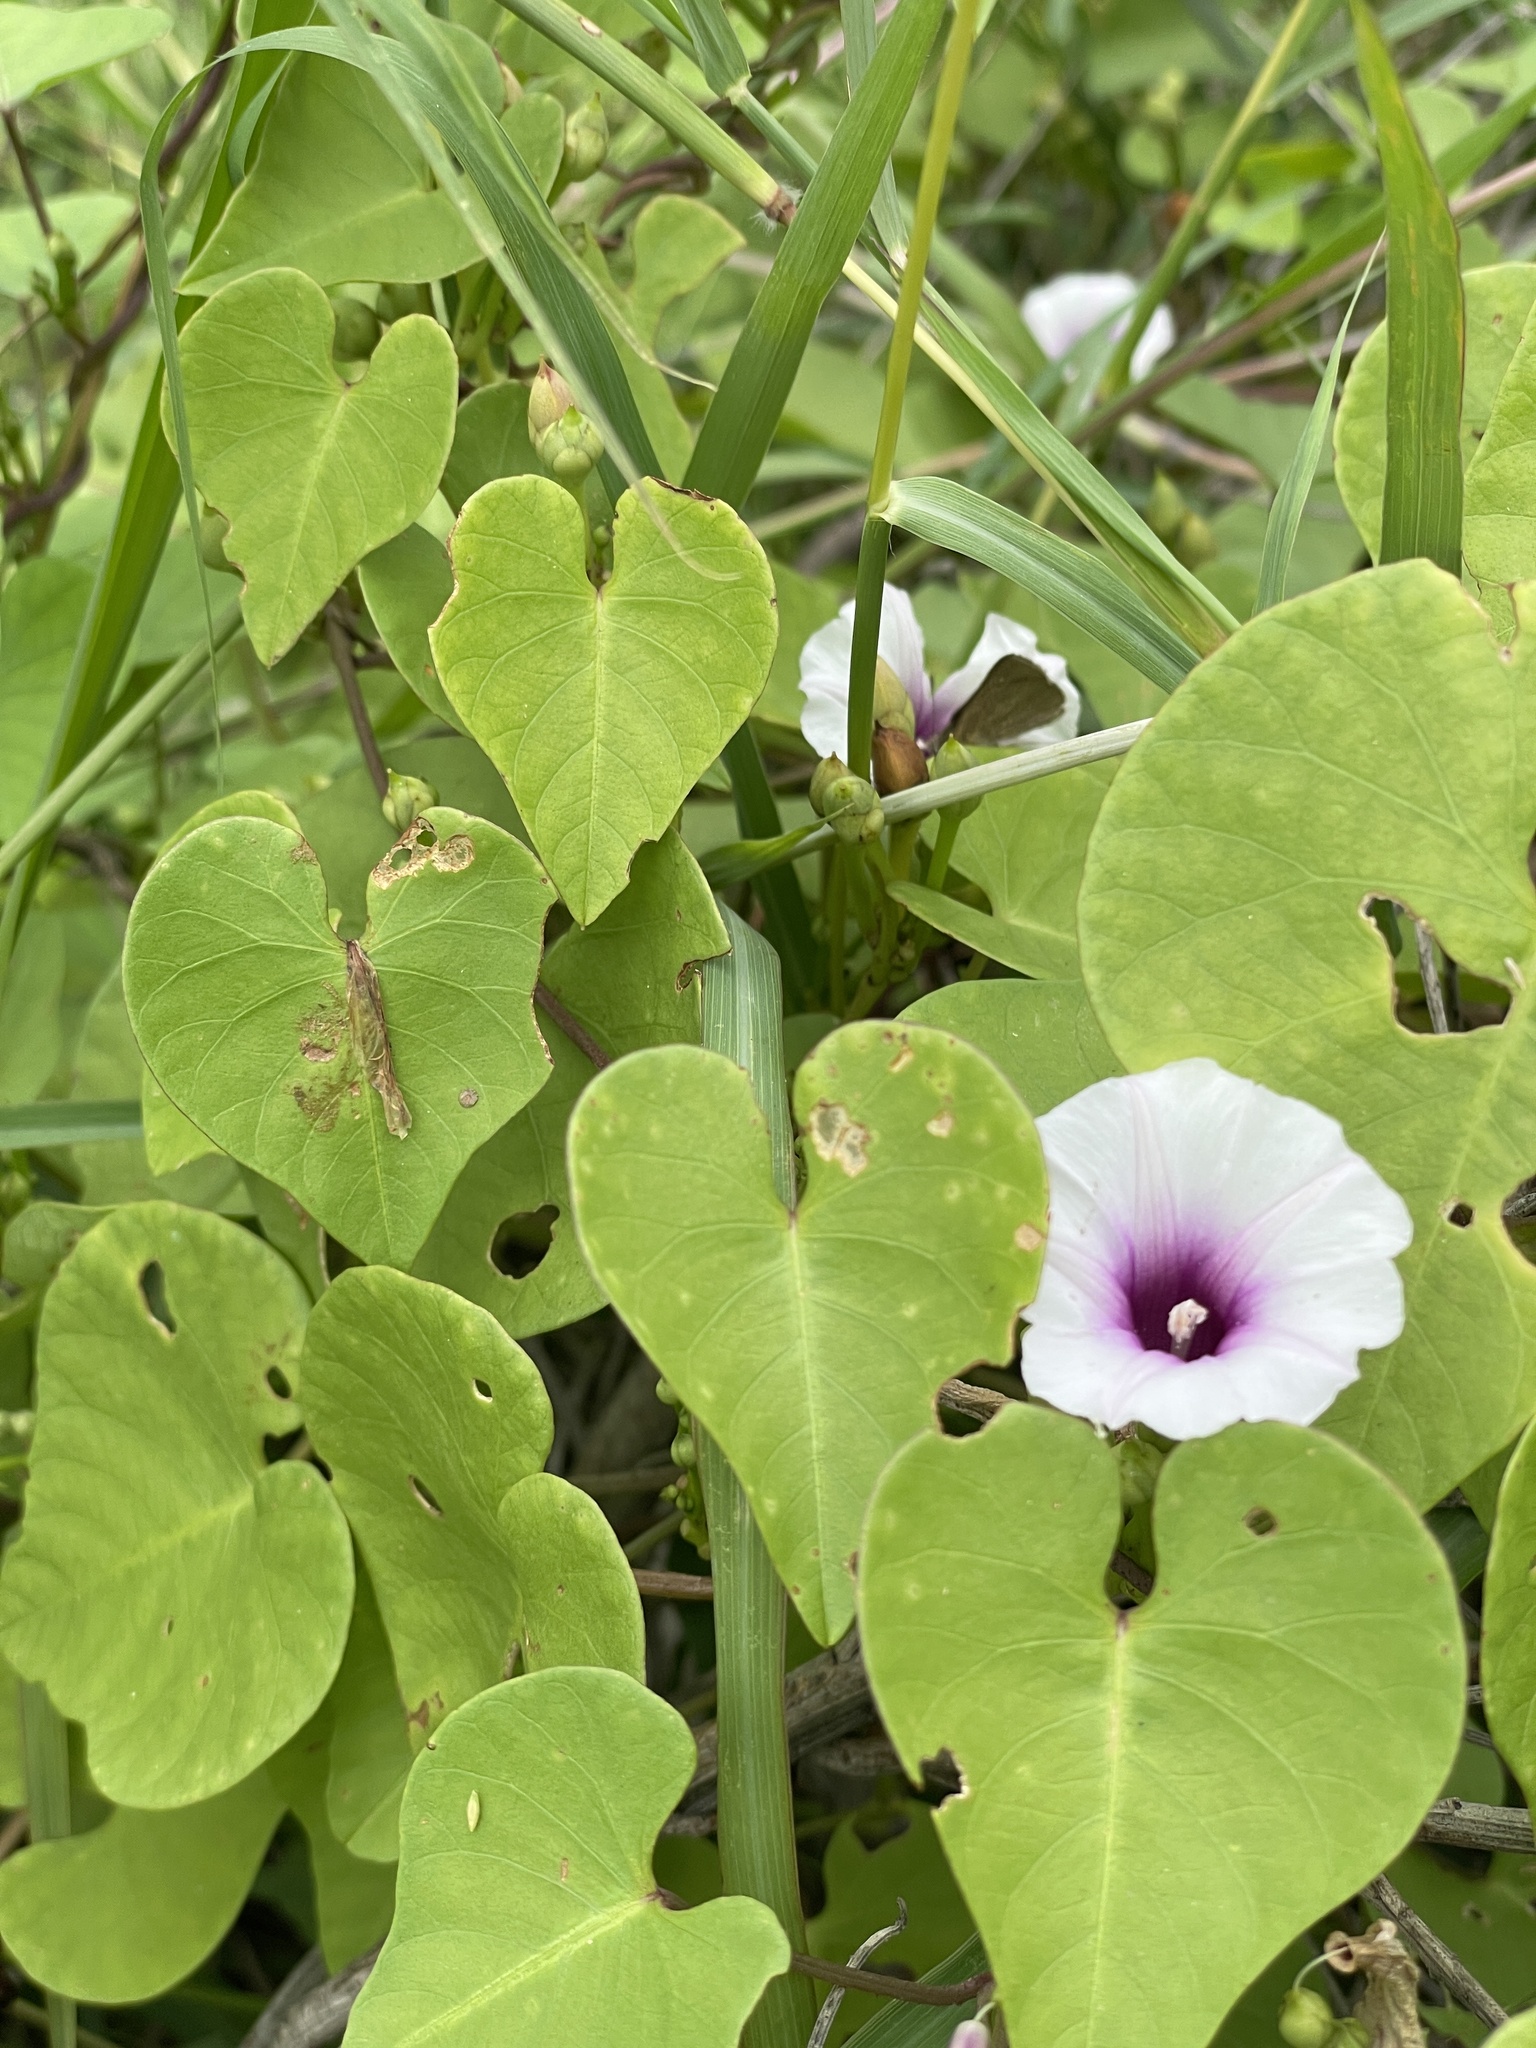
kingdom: Plantae
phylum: Tracheophyta
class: Magnoliopsida
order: Solanales
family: Convolvulaceae
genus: Ipomoea
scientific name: Ipomoea amnicola
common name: Redcenter morning-glory
